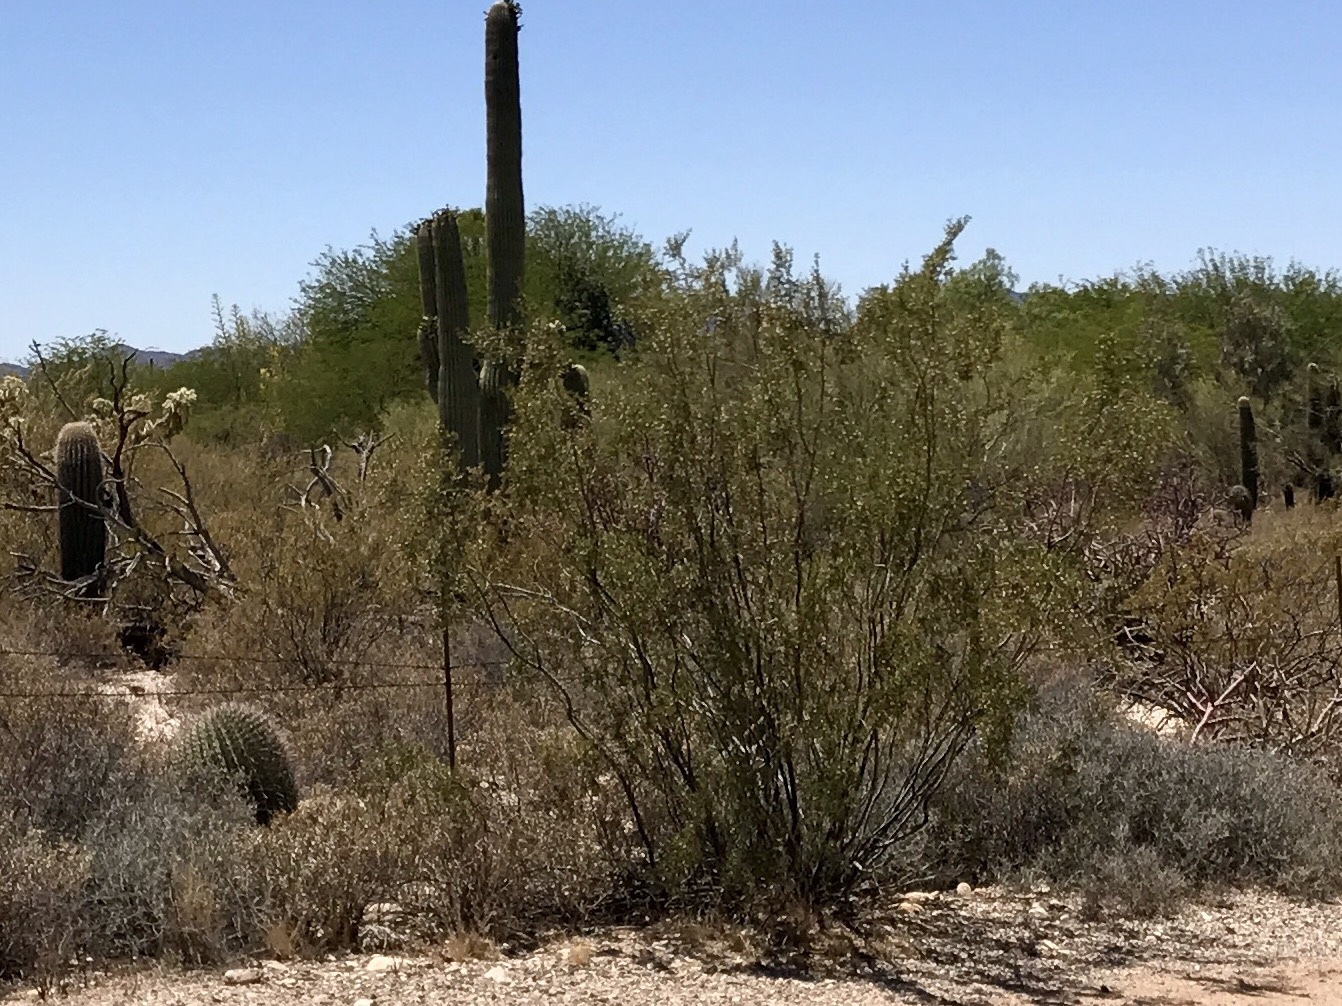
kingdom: Plantae
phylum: Tracheophyta
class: Magnoliopsida
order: Zygophyllales
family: Zygophyllaceae
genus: Larrea
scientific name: Larrea tridentata
